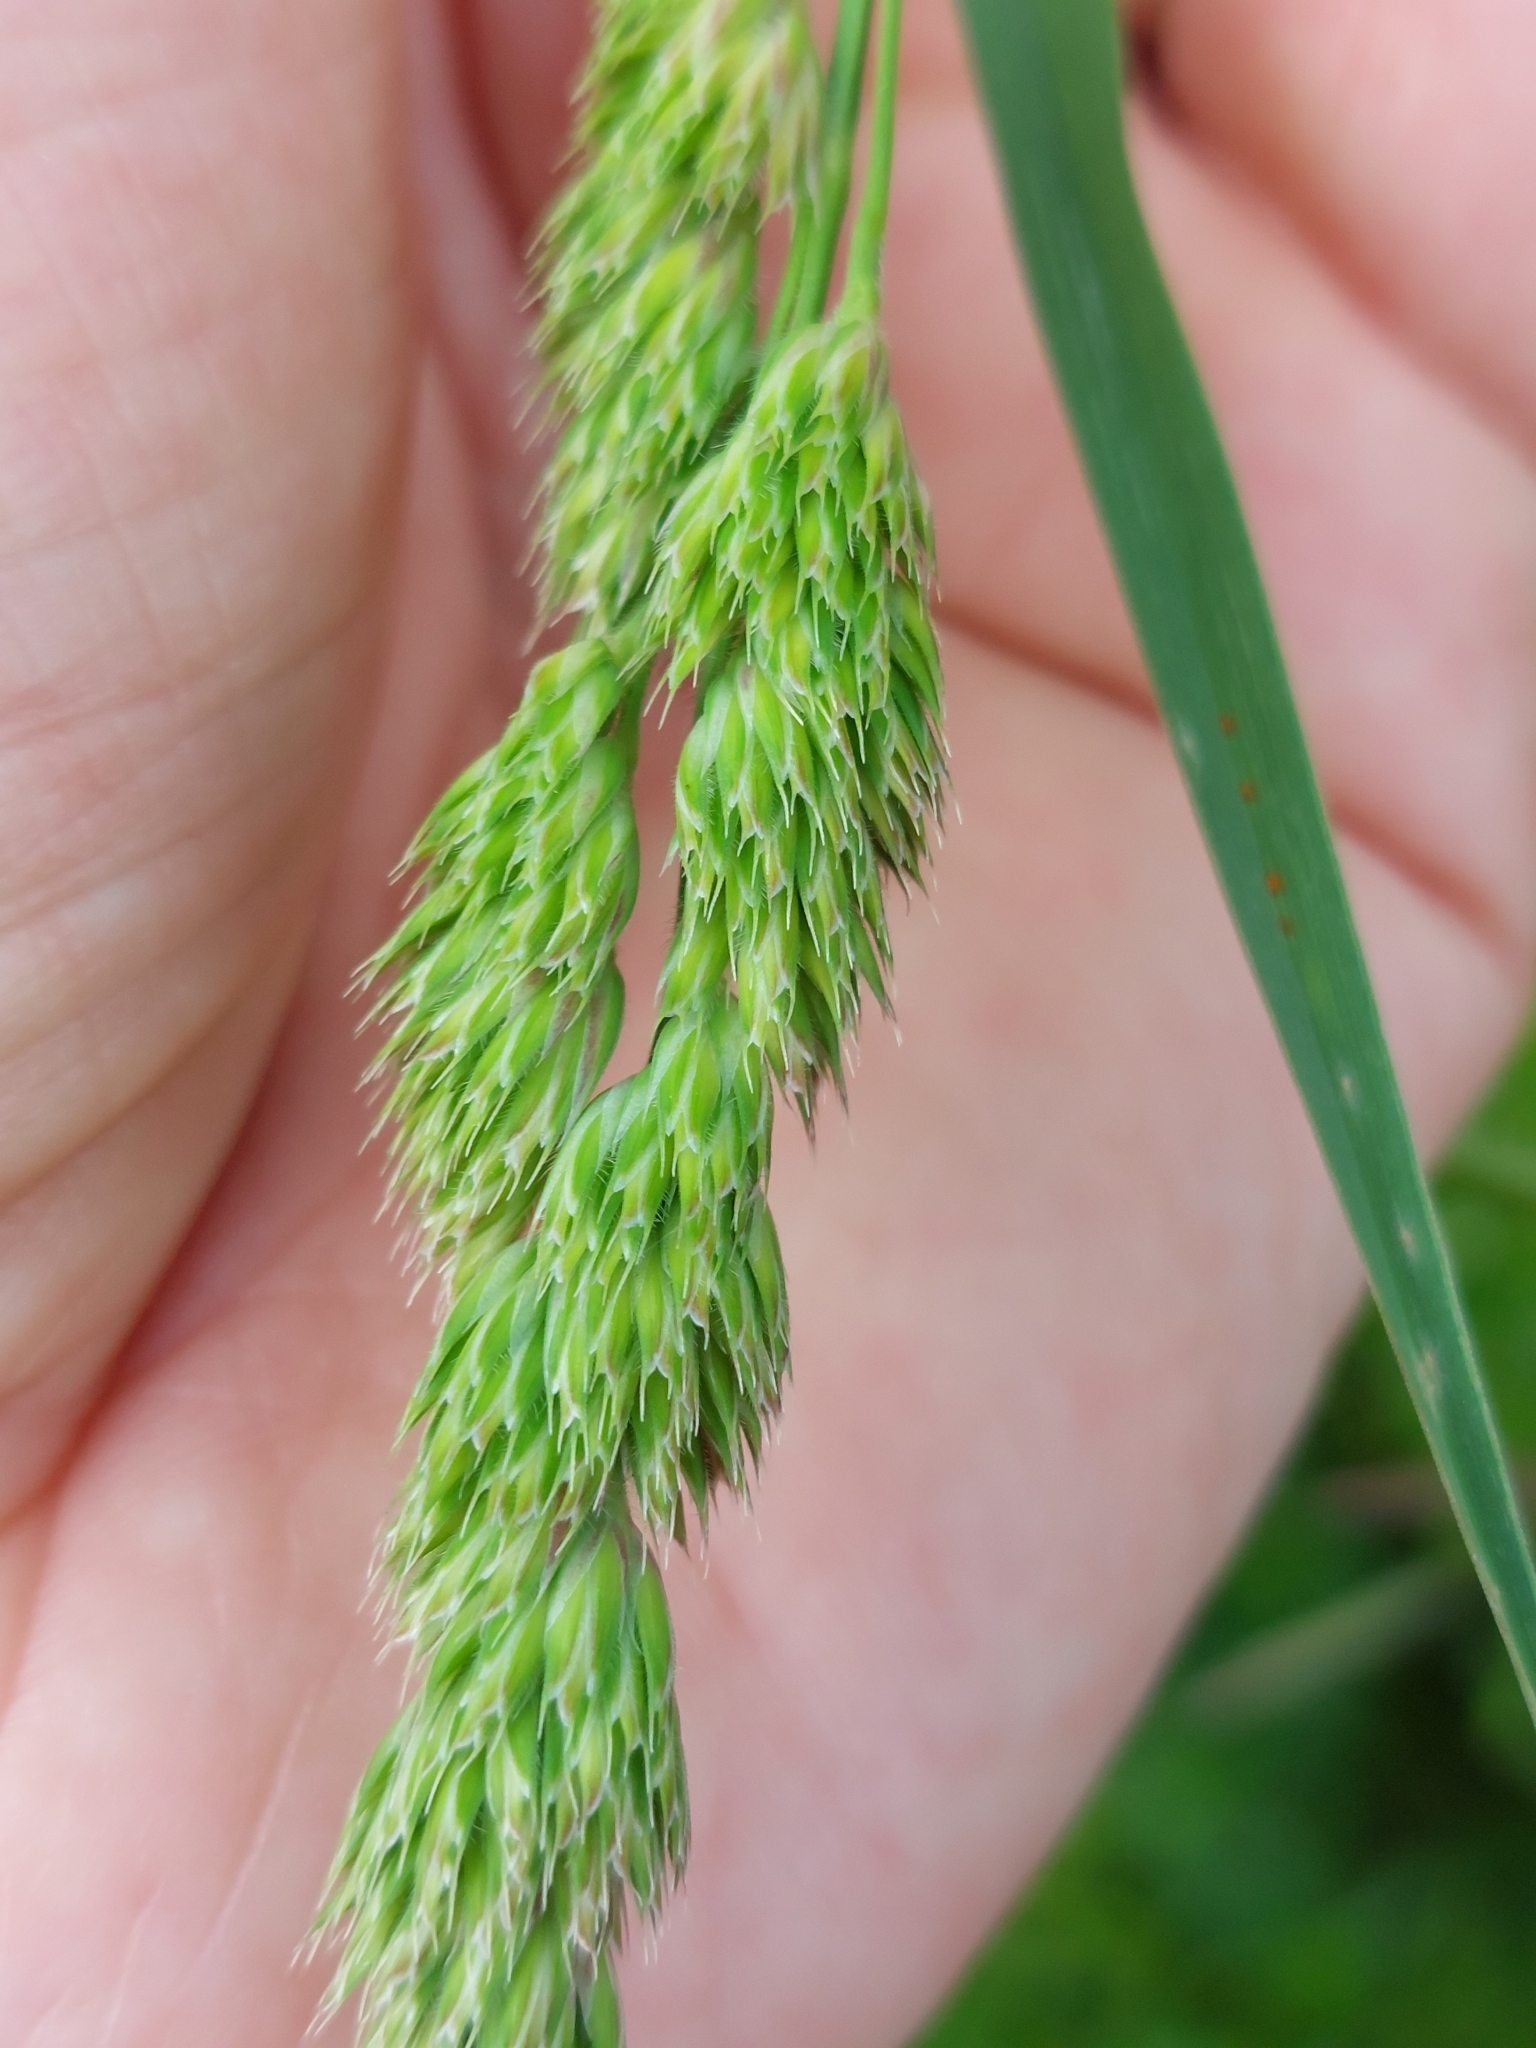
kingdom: Plantae
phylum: Tracheophyta
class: Liliopsida
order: Poales
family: Poaceae
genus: Dactylis
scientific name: Dactylis glomerata
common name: Orchardgrass
